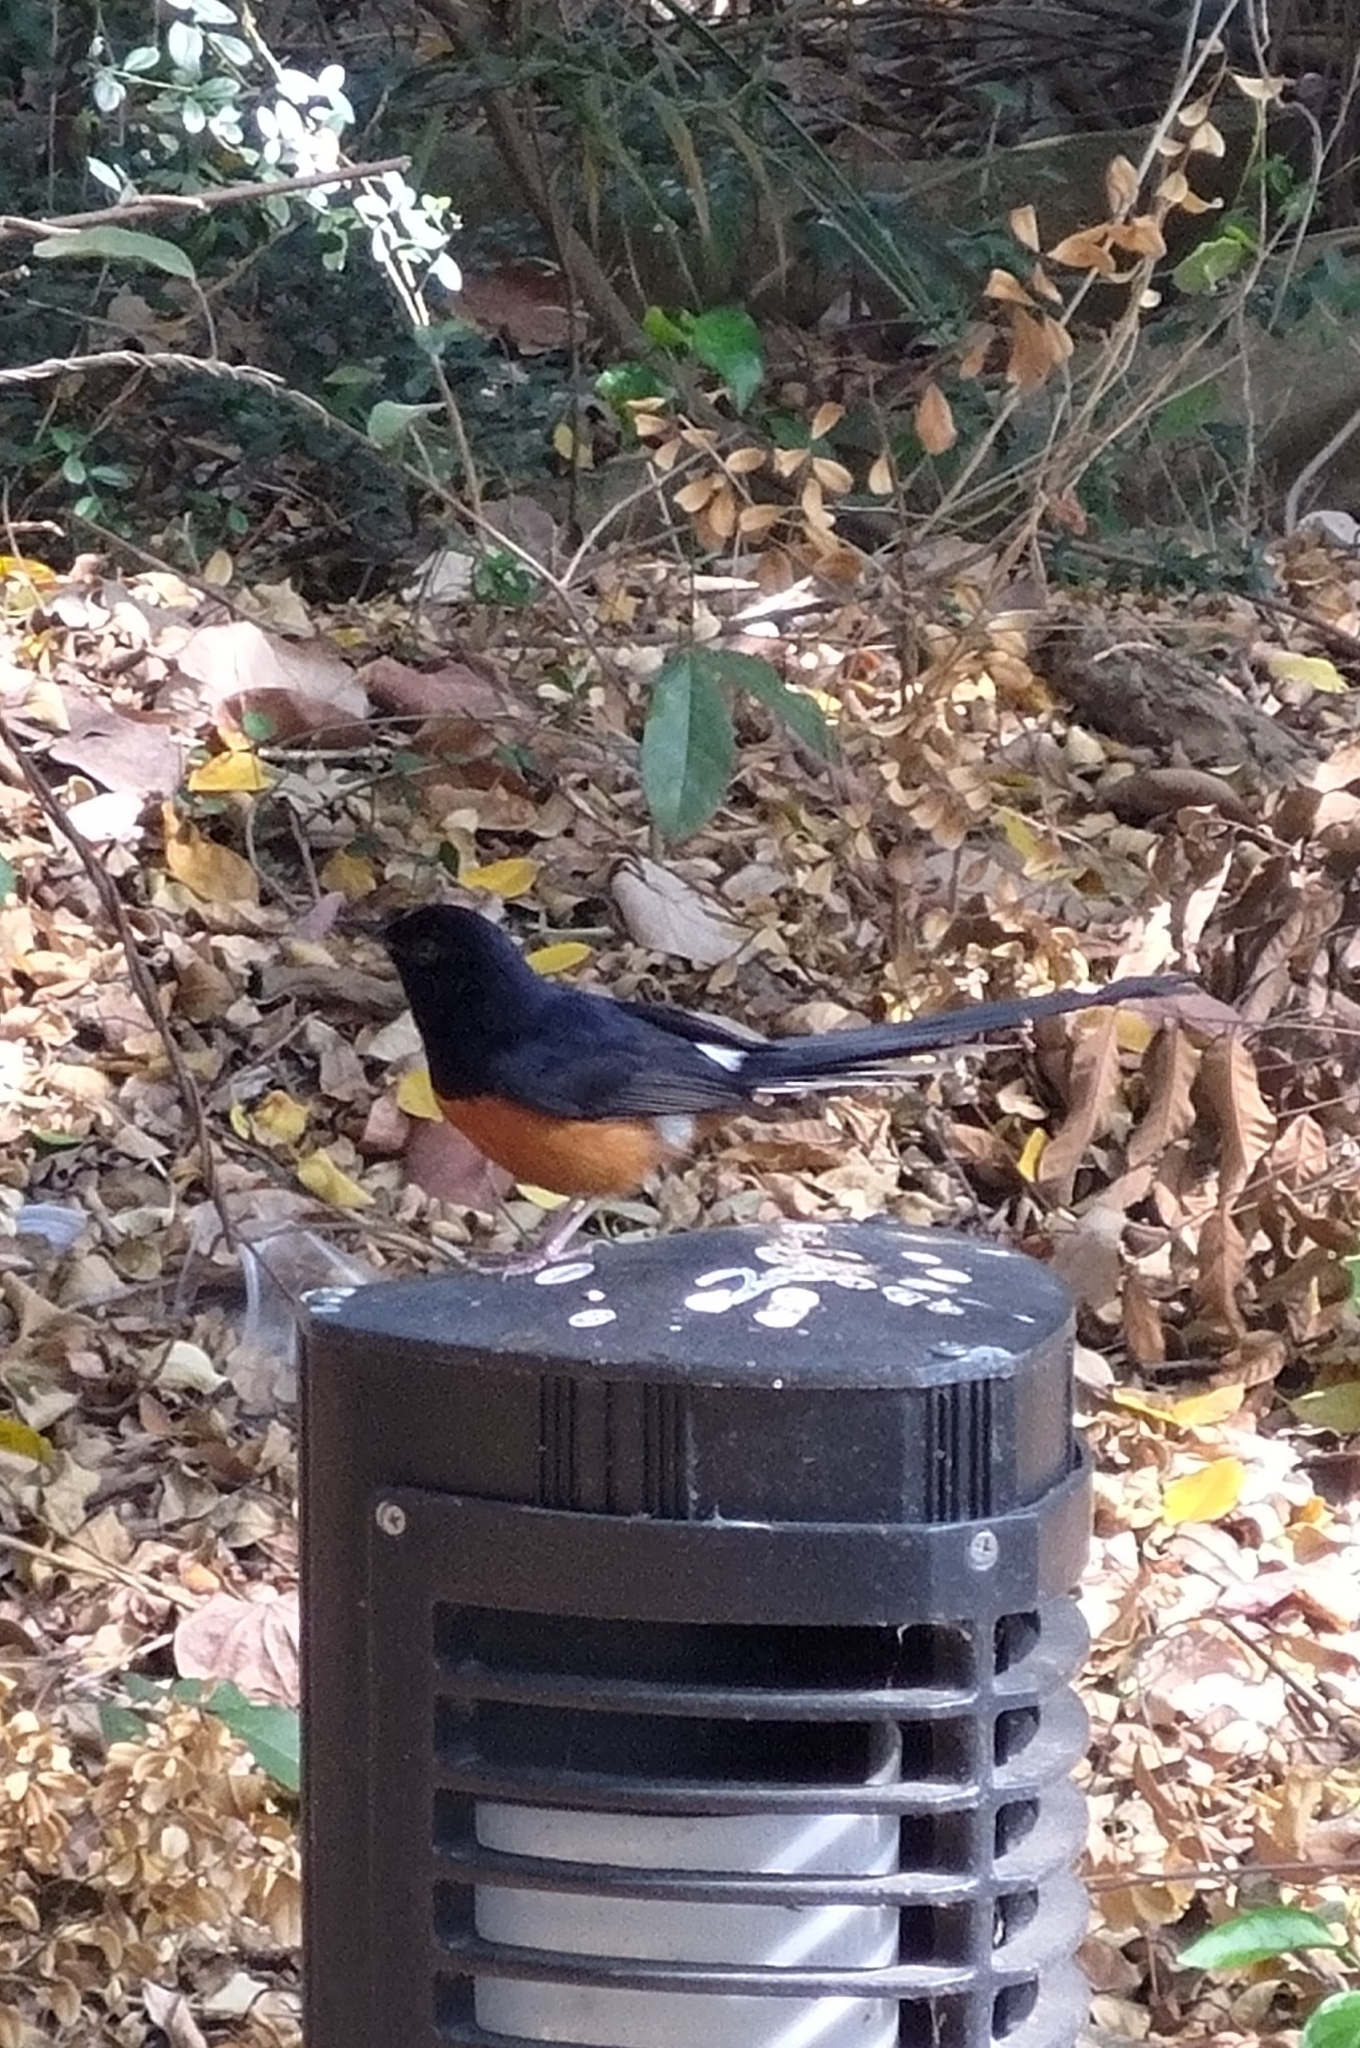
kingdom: Animalia
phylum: Chordata
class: Aves
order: Passeriformes
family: Muscicapidae
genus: Copsychus
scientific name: Copsychus malabaricus
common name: White-rumped shama
